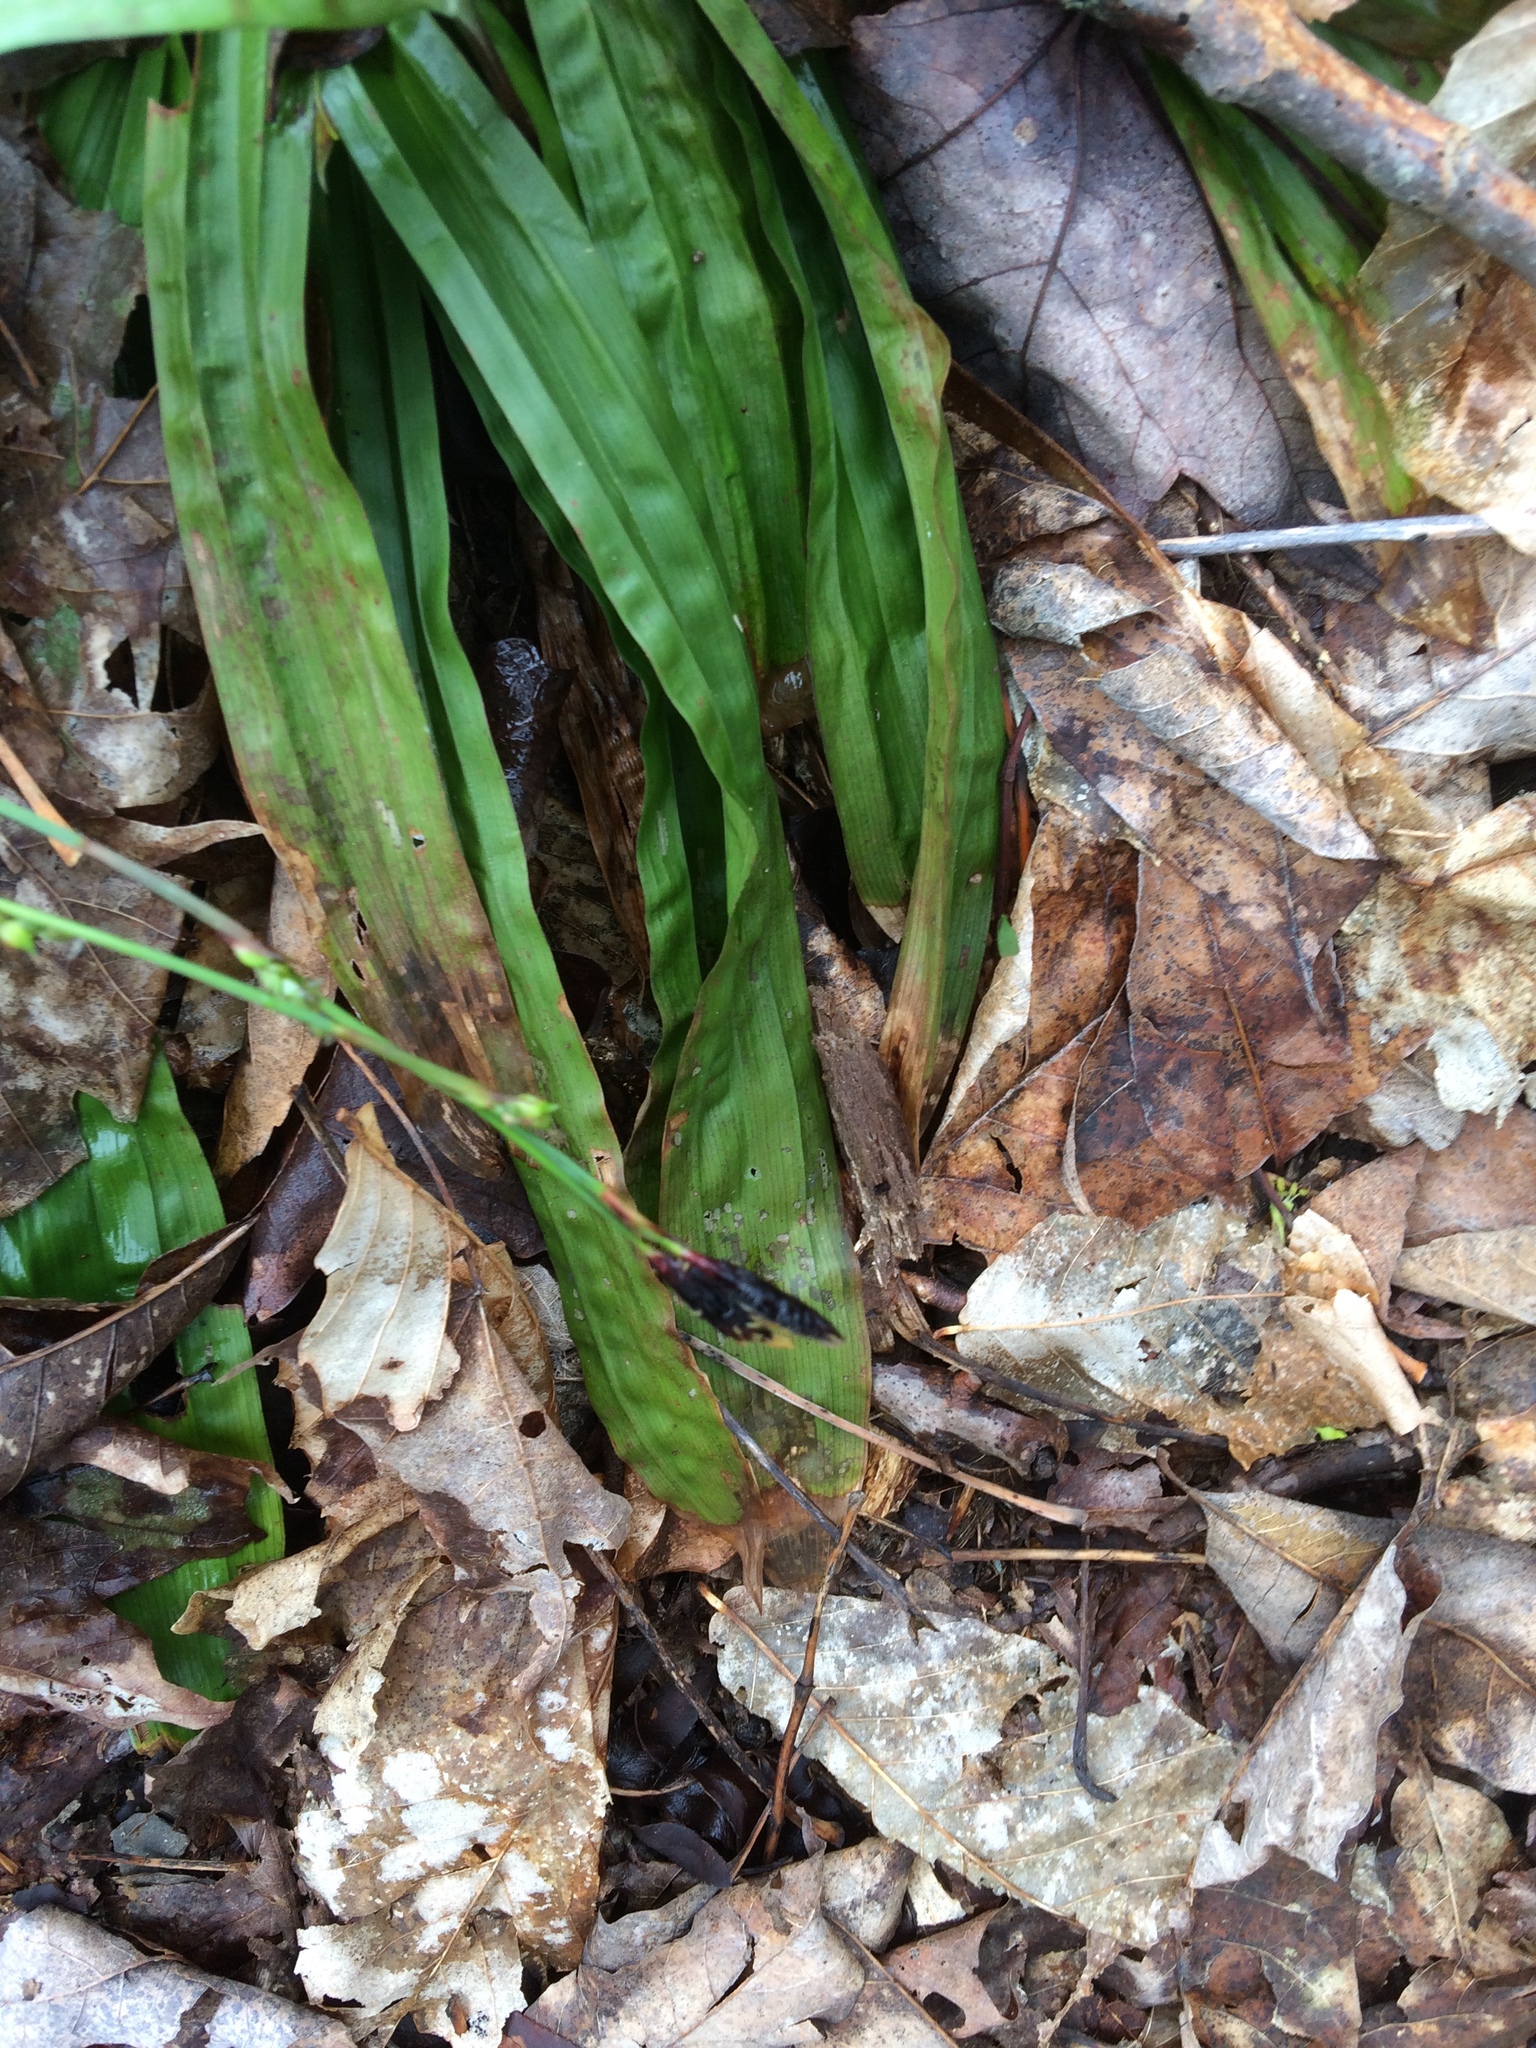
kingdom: Plantae
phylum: Tracheophyta
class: Liliopsida
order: Poales
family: Cyperaceae
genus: Carex
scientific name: Carex plantaginea
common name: Plantain-leaved sedge
